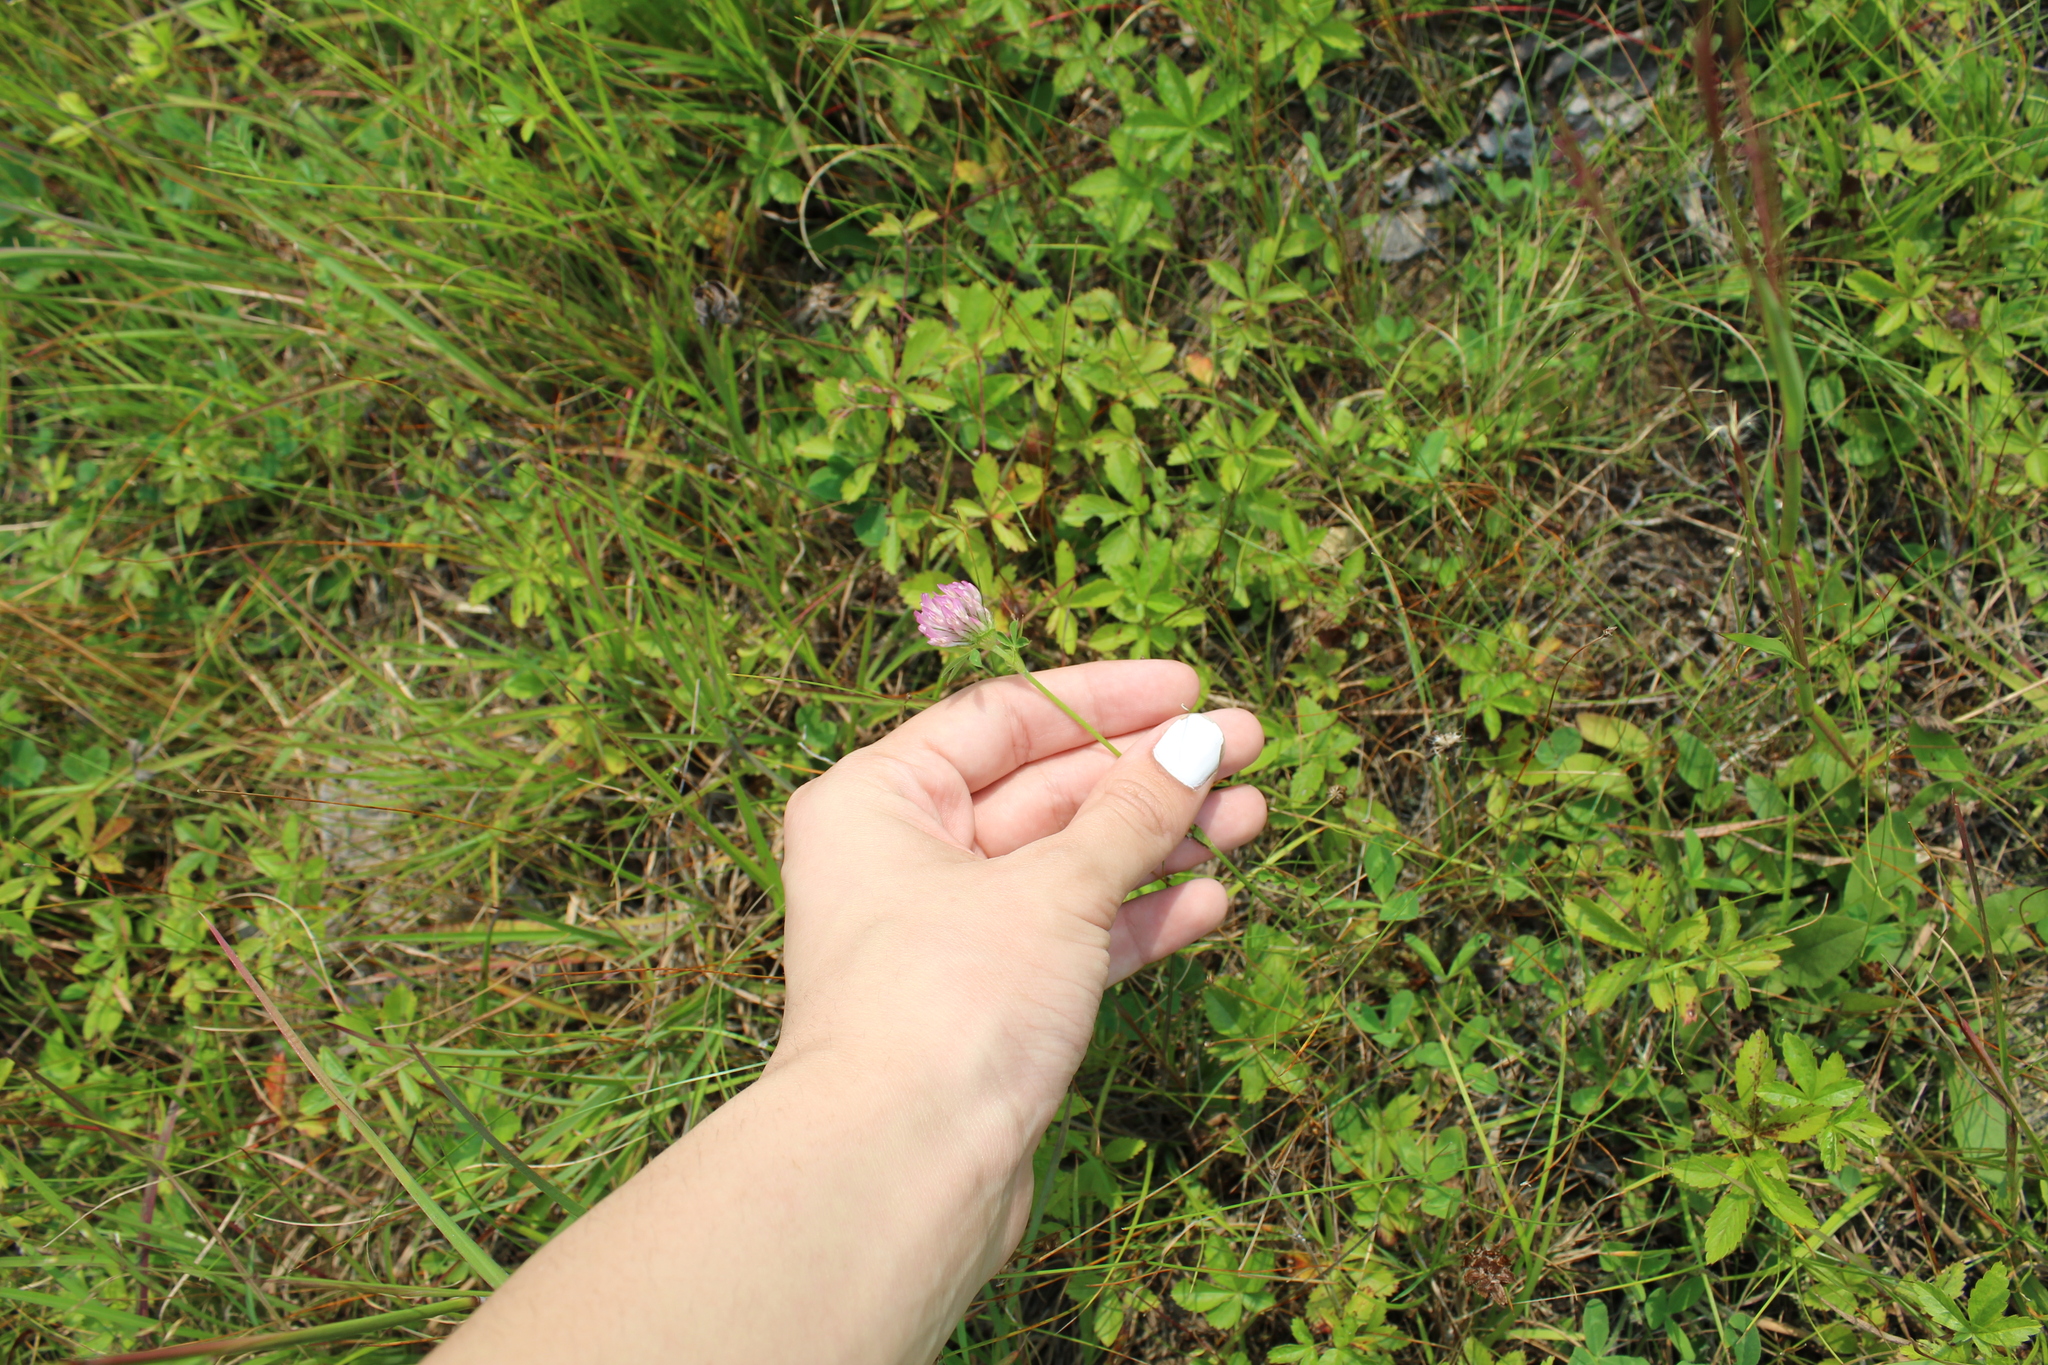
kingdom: Plantae
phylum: Tracheophyta
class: Magnoliopsida
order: Fabales
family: Fabaceae
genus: Trifolium
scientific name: Trifolium pratense
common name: Red clover
